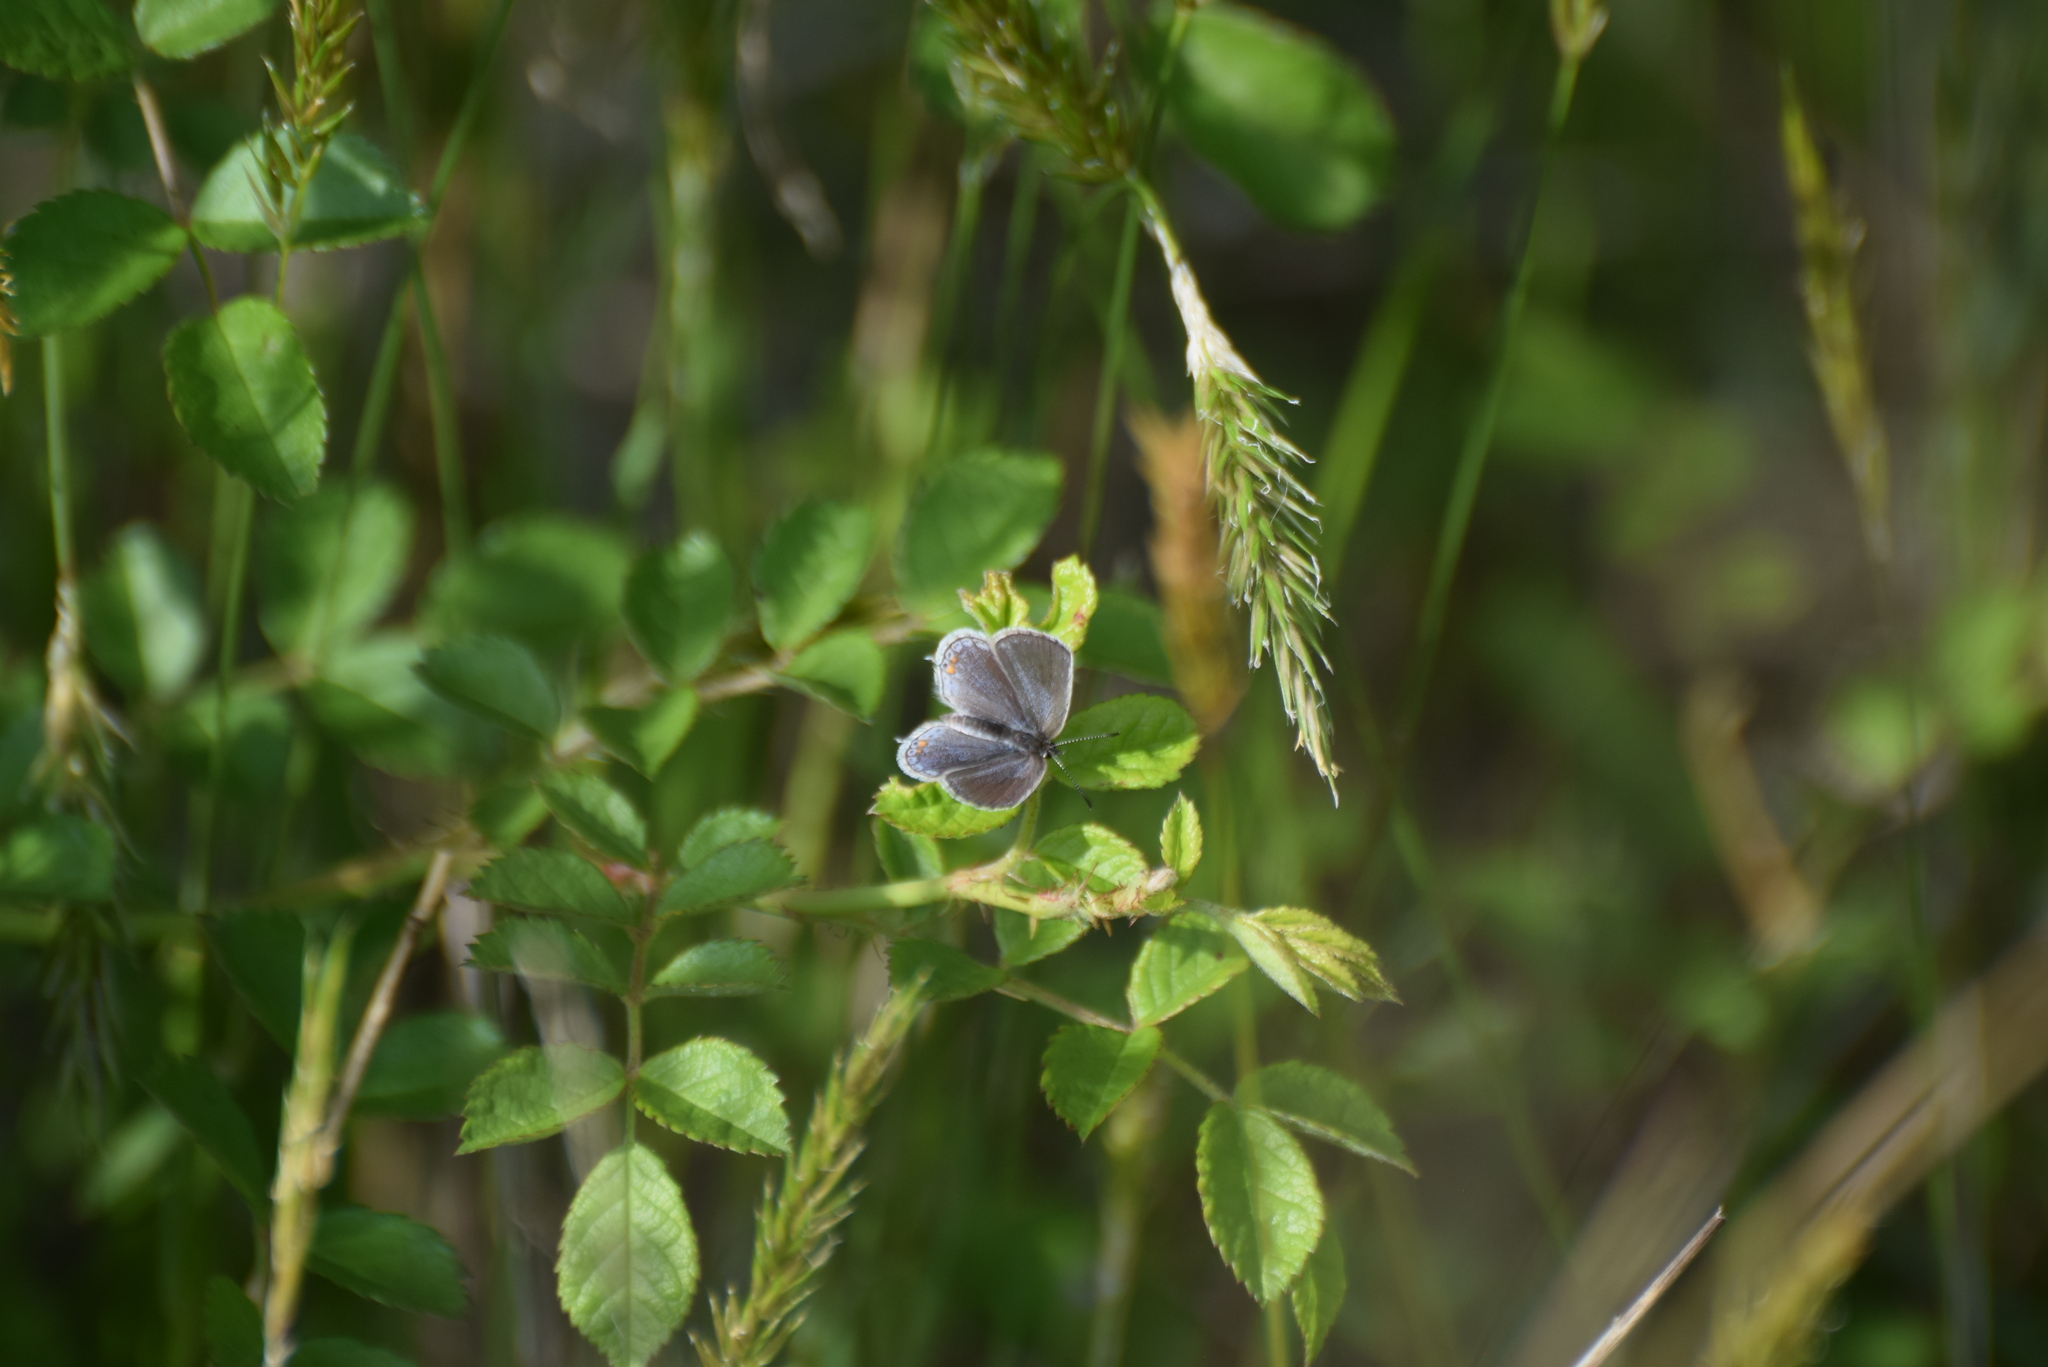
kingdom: Animalia
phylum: Arthropoda
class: Insecta
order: Lepidoptera
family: Lycaenidae
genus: Elkalyce
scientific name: Elkalyce comyntas
